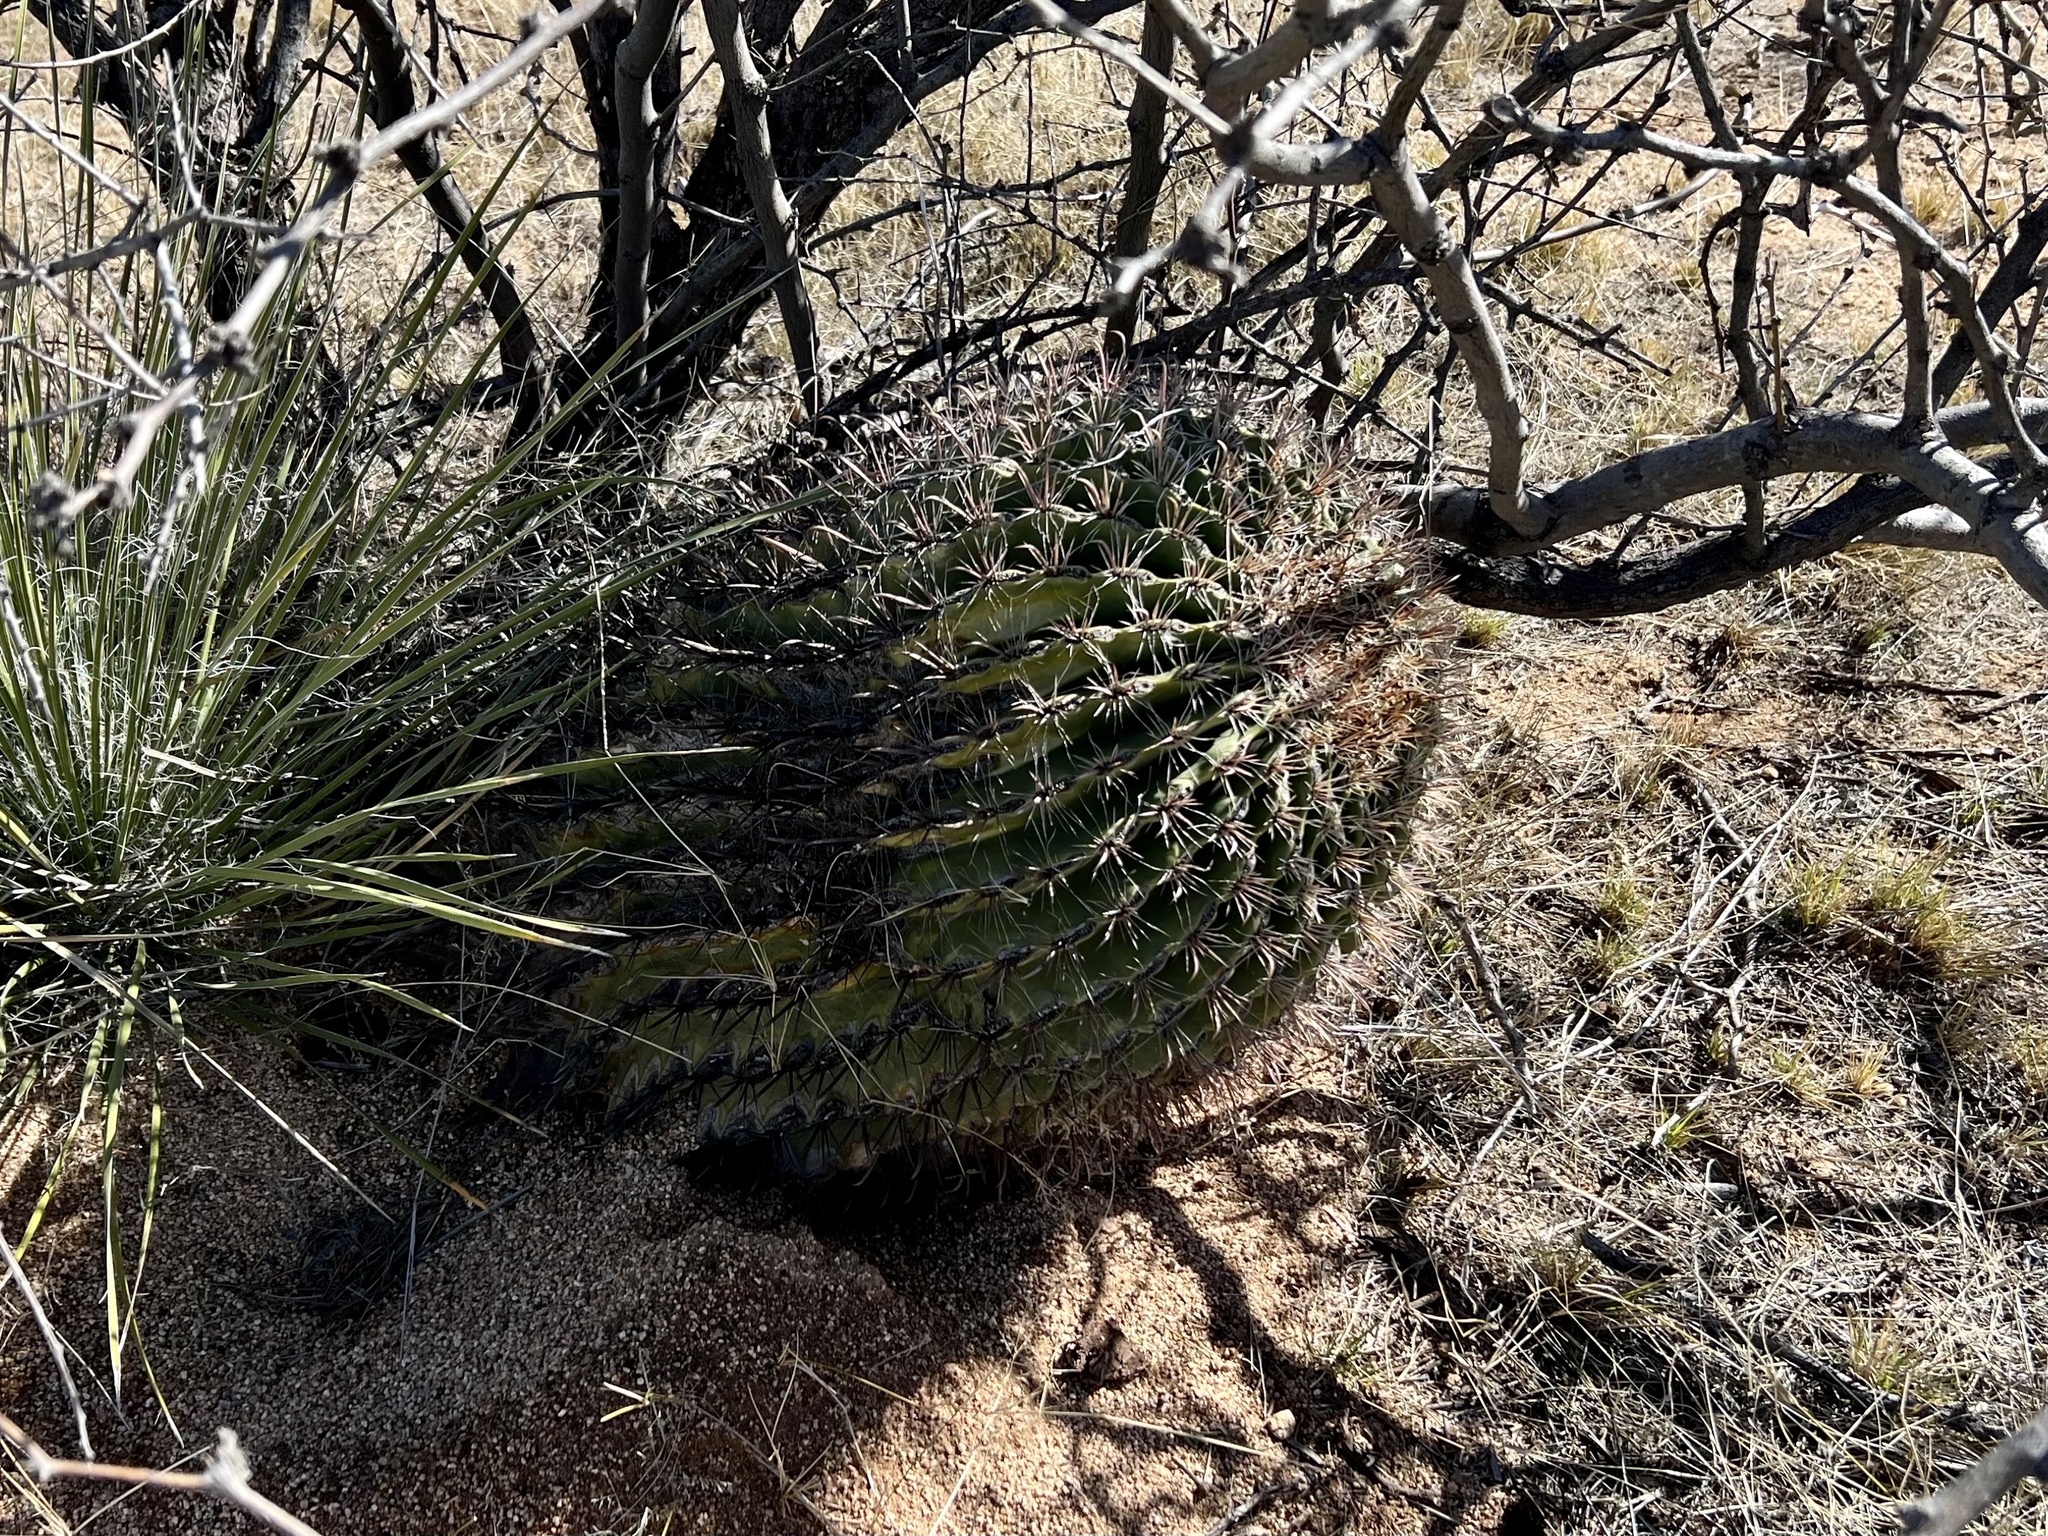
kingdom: Plantae
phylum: Tracheophyta
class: Magnoliopsida
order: Caryophyllales
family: Cactaceae
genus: Ferocactus
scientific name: Ferocactus wislizeni
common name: Candy barrel cactus
